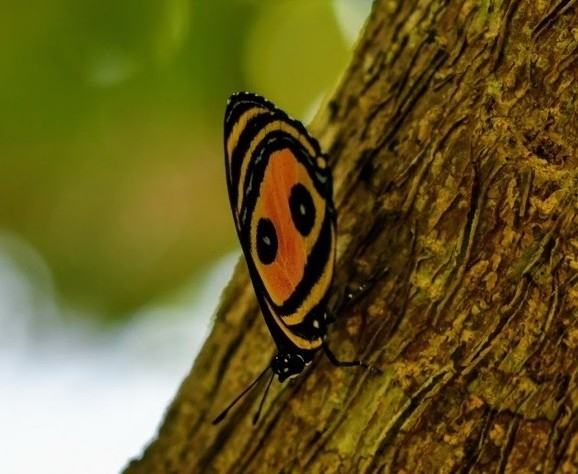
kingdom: Animalia
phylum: Arthropoda
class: Insecta
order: Lepidoptera
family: Nymphalidae
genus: Catagramma
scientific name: Catagramma Callicore pitheas
